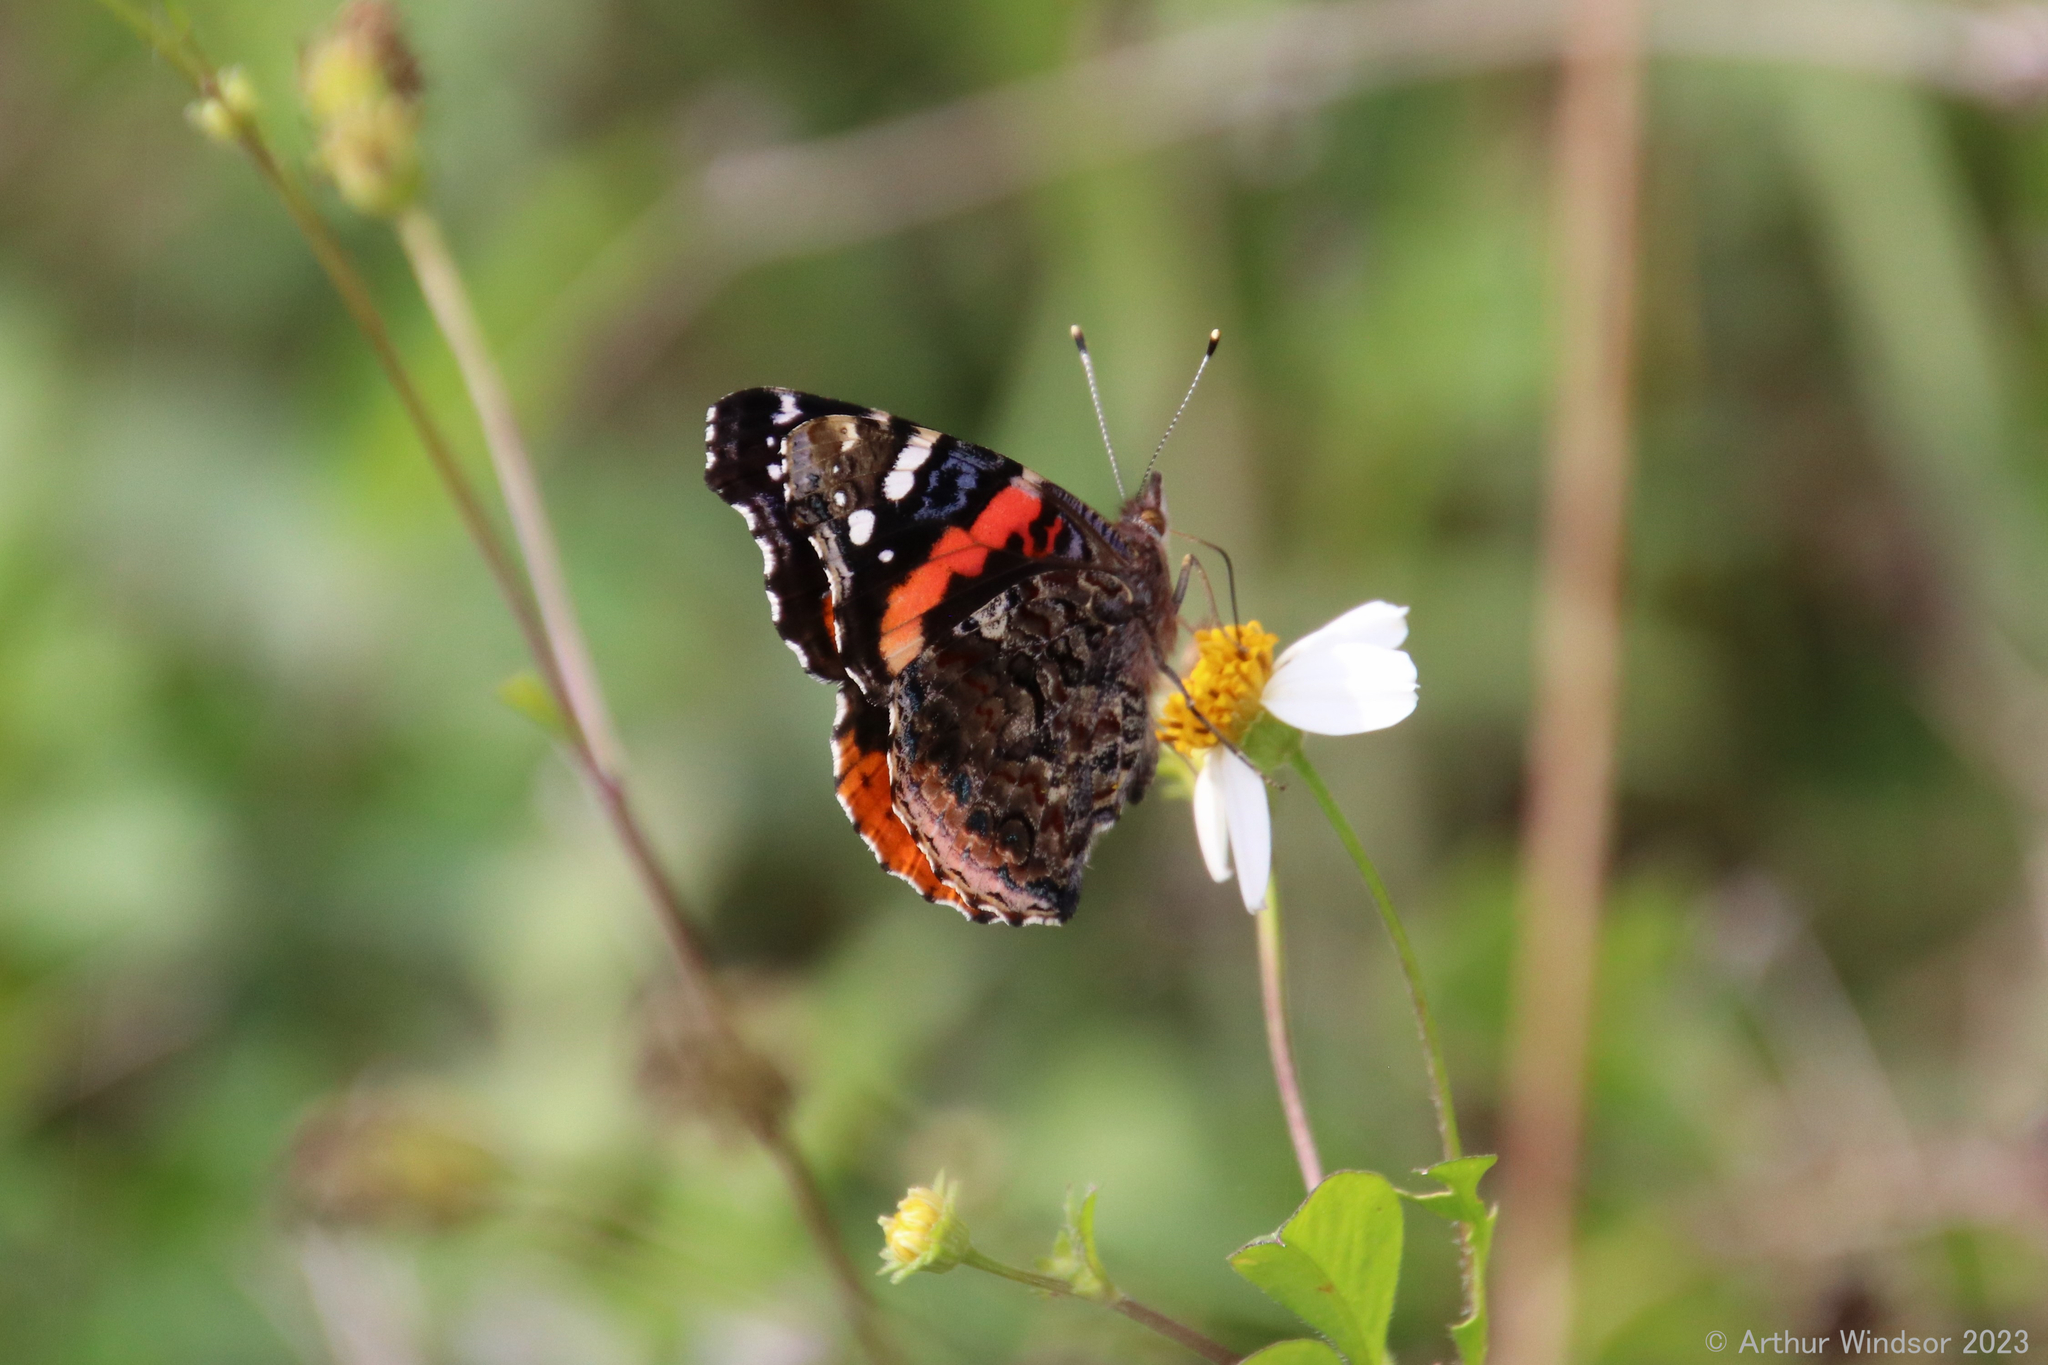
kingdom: Animalia
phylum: Arthropoda
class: Insecta
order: Lepidoptera
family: Nymphalidae
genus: Vanessa
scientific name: Vanessa atalanta
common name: Red admiral
